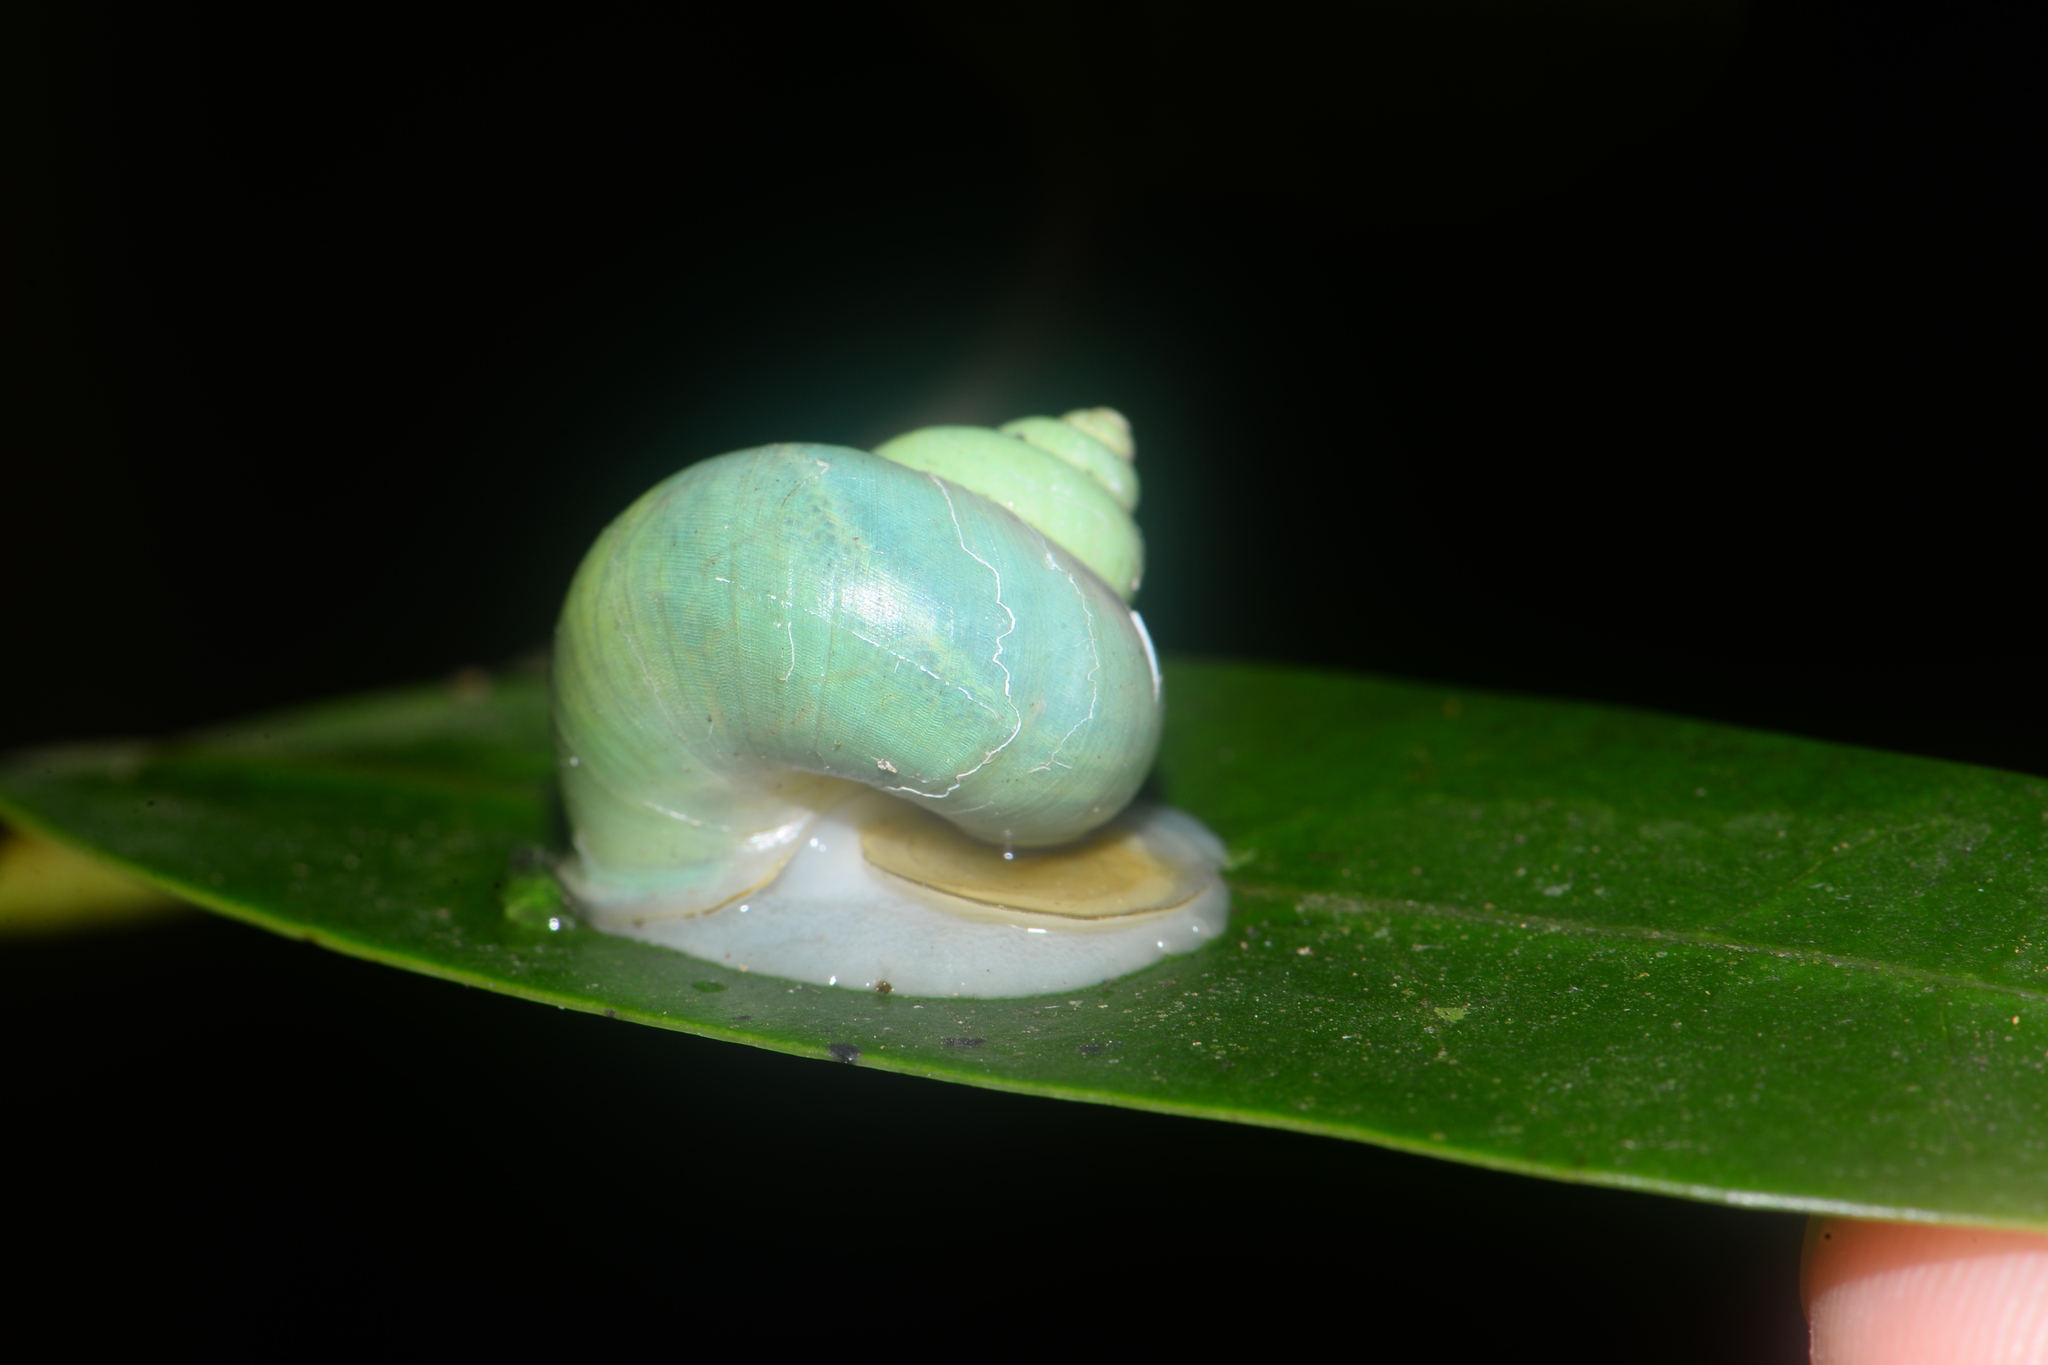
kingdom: Animalia
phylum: Mollusca
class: Gastropoda
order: Architaenioglossa
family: Cyclophoridae
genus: Leptopoma
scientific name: Leptopoma nitidum
